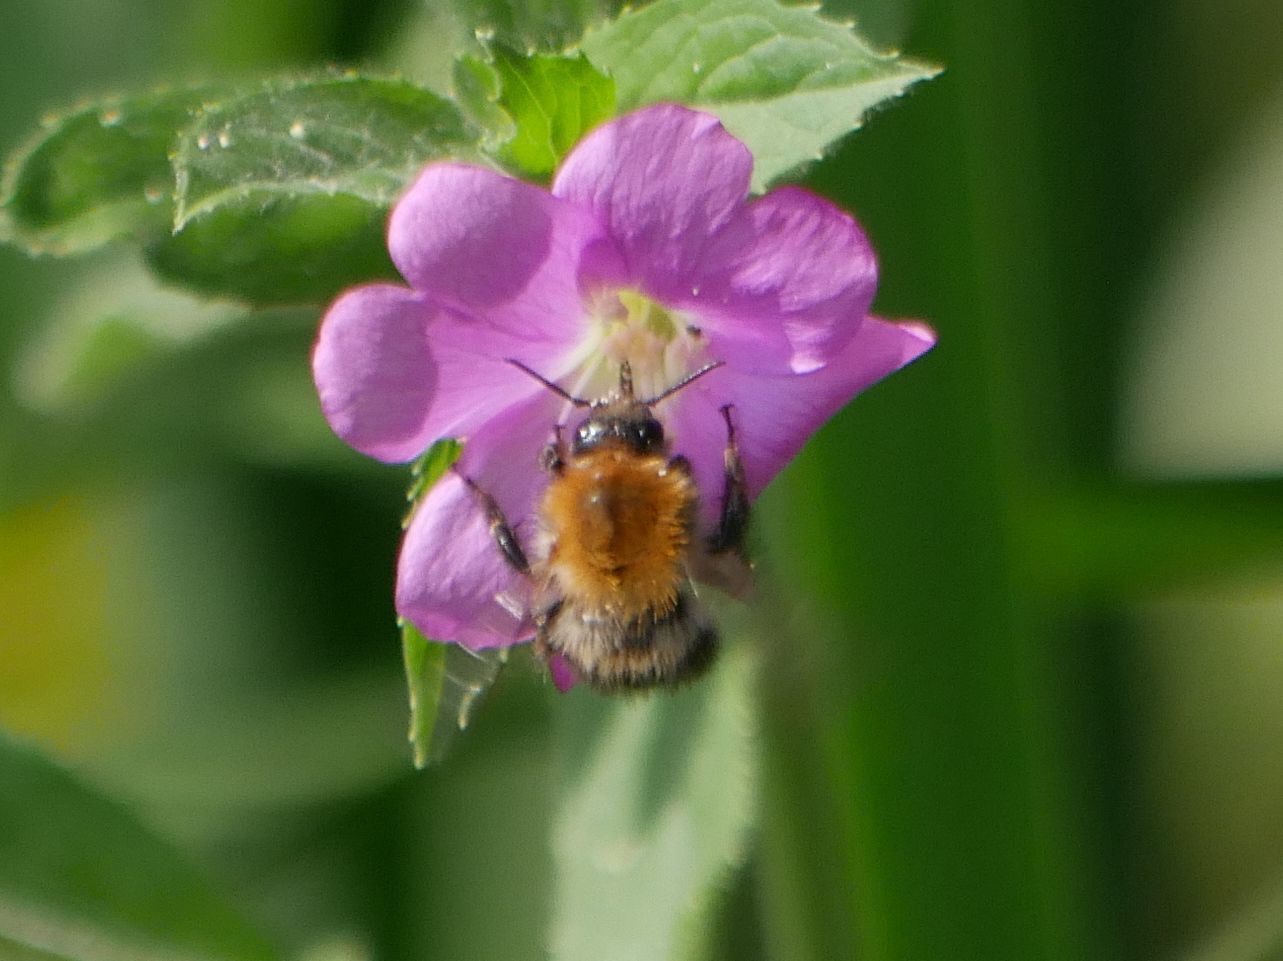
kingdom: Animalia
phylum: Arthropoda
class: Insecta
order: Hymenoptera
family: Apidae
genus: Bombus
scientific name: Bombus pascuorum
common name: Common carder bee
